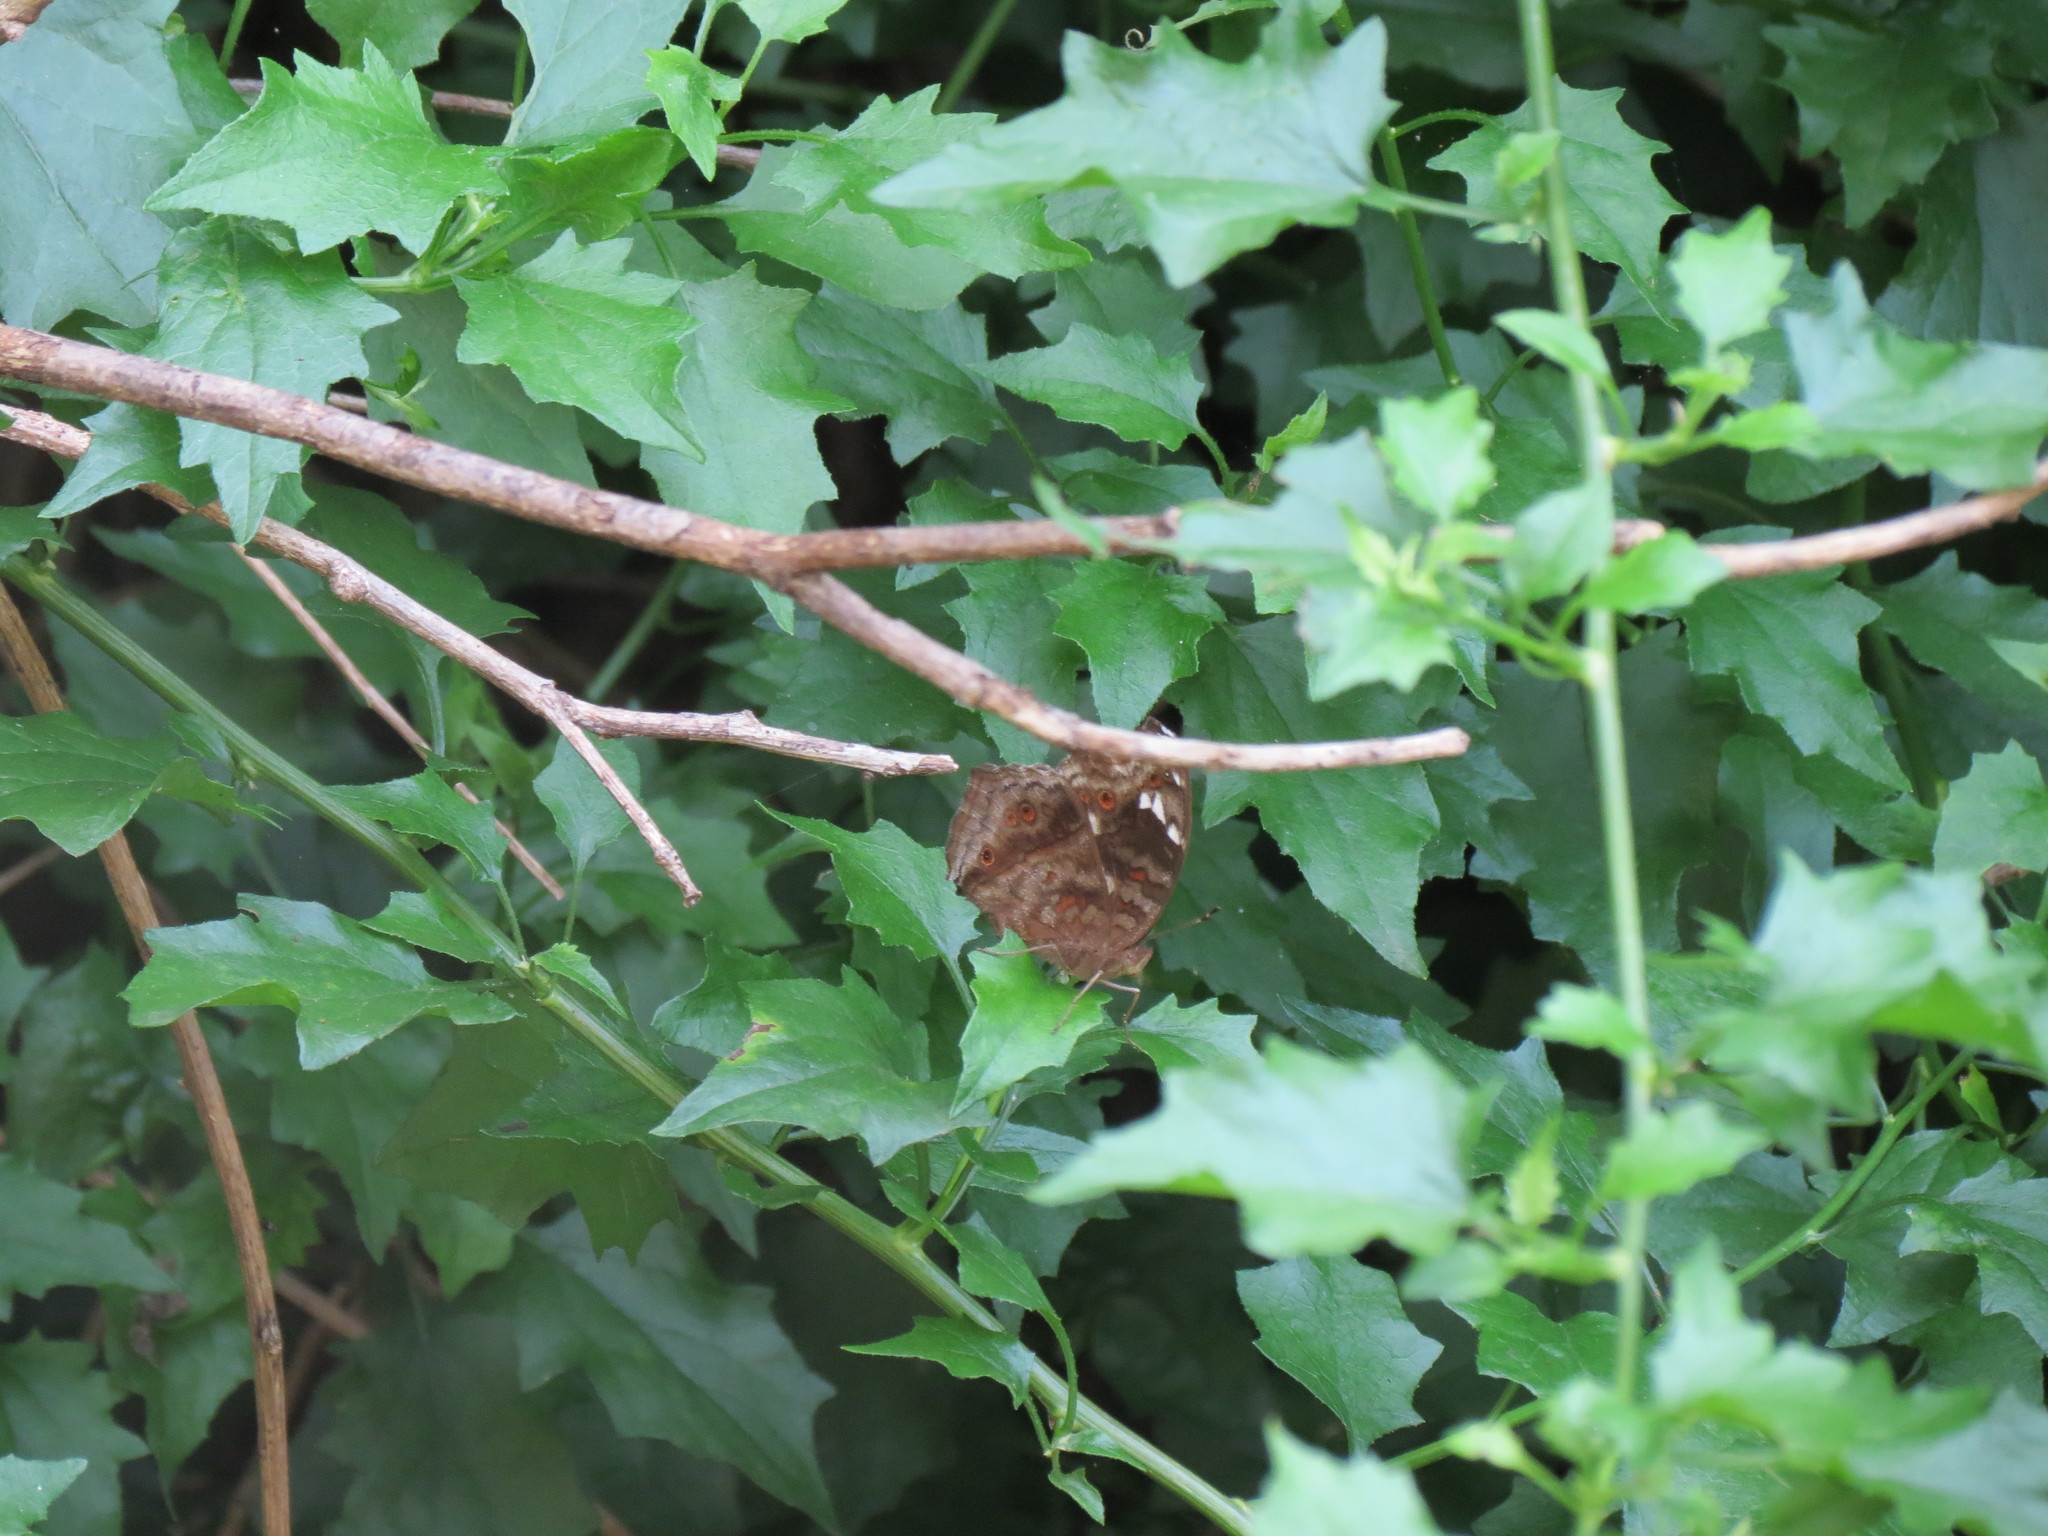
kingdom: Animalia
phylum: Arthropoda
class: Insecta
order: Lepidoptera
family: Nymphalidae
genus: Junonia
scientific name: Junonia natalica
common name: Brown pansy
